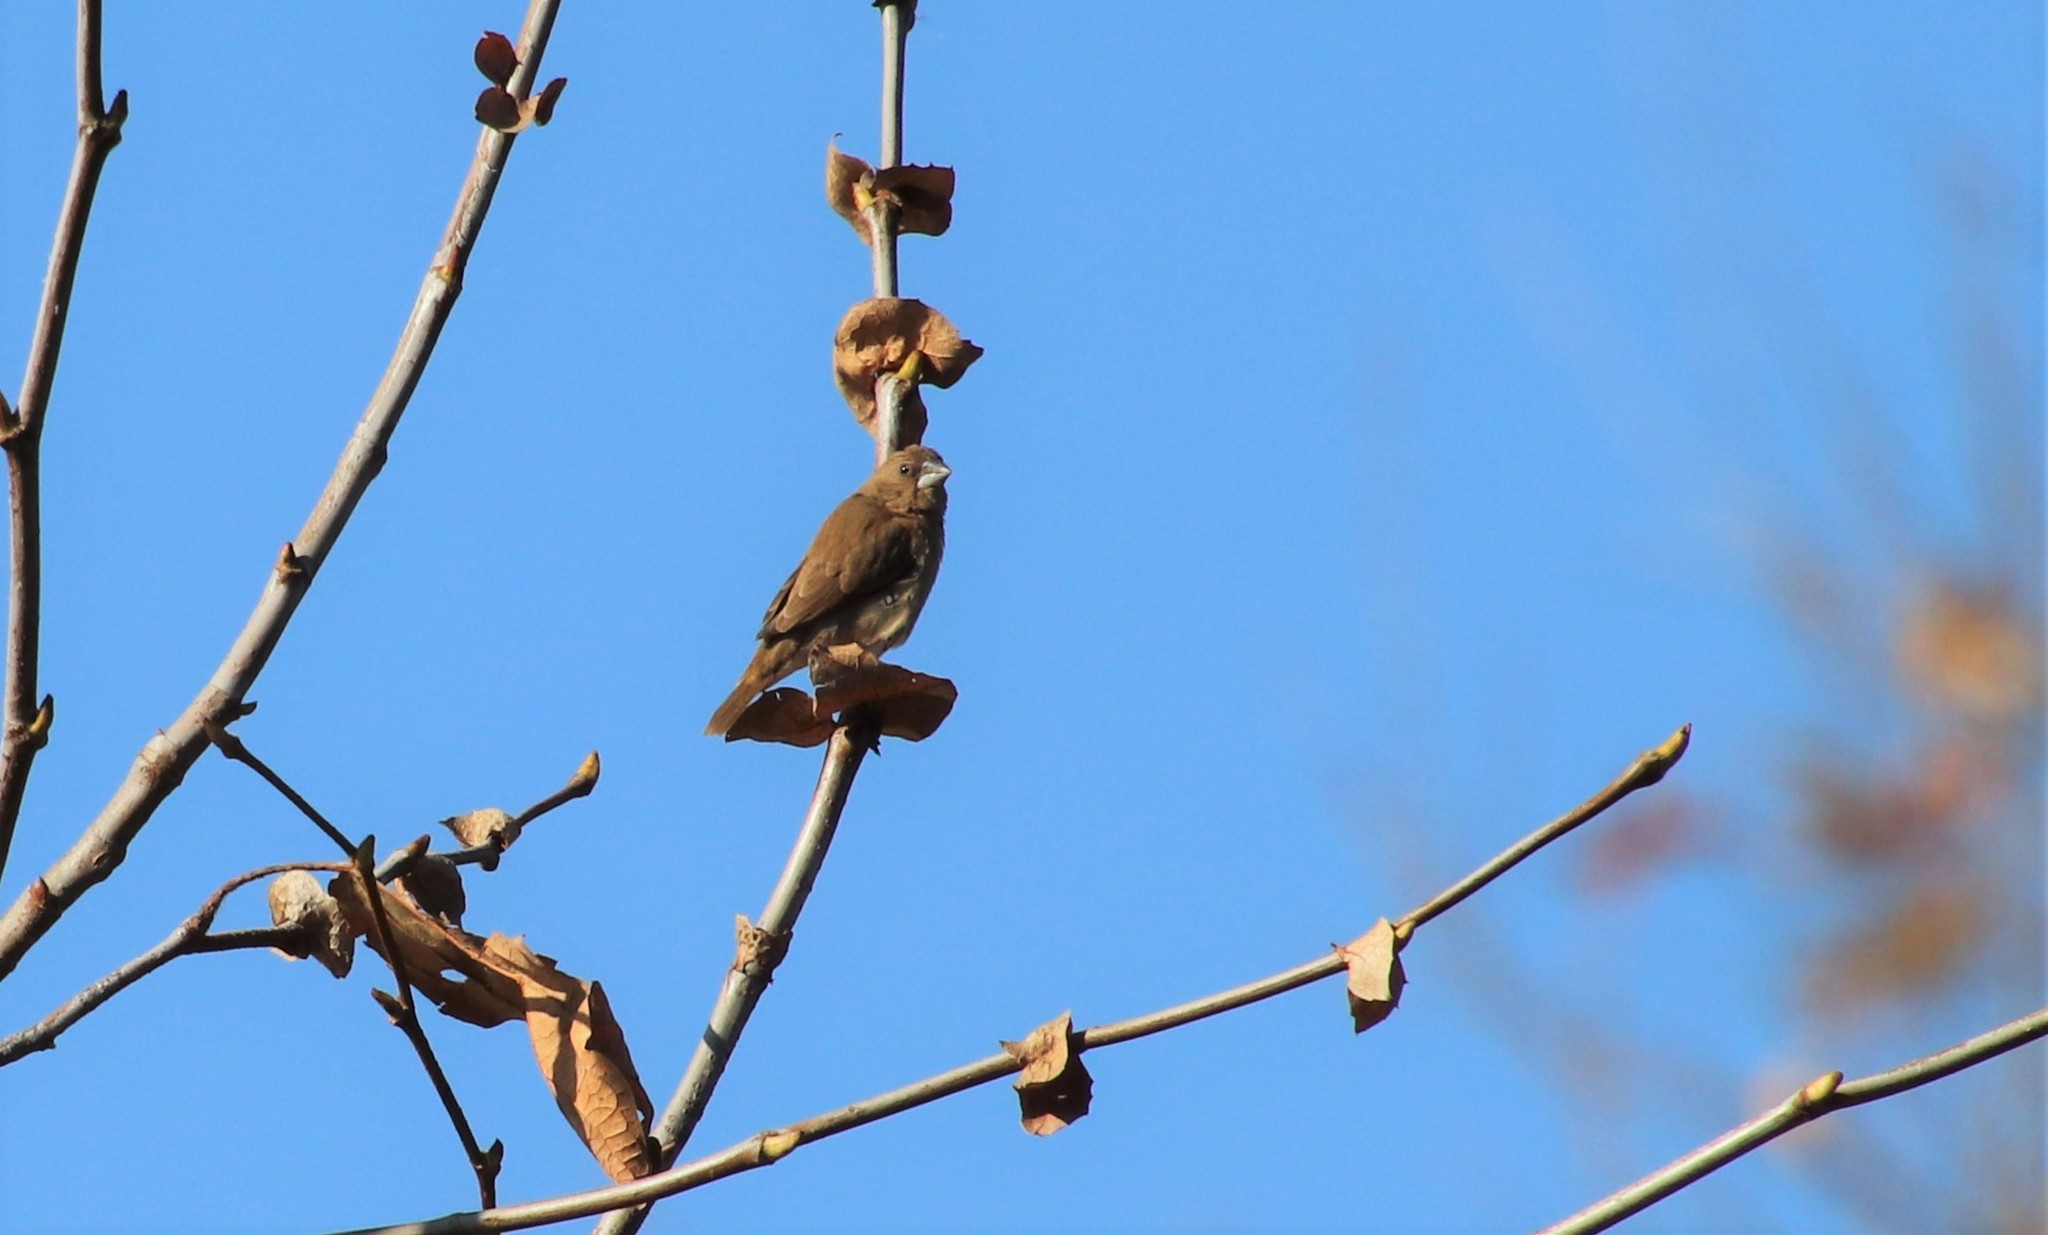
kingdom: Animalia
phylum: Chordata
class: Aves
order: Passeriformes
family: Estrildidae
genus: Lonchura
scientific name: Lonchura punctulata
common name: Scaly-breasted munia
